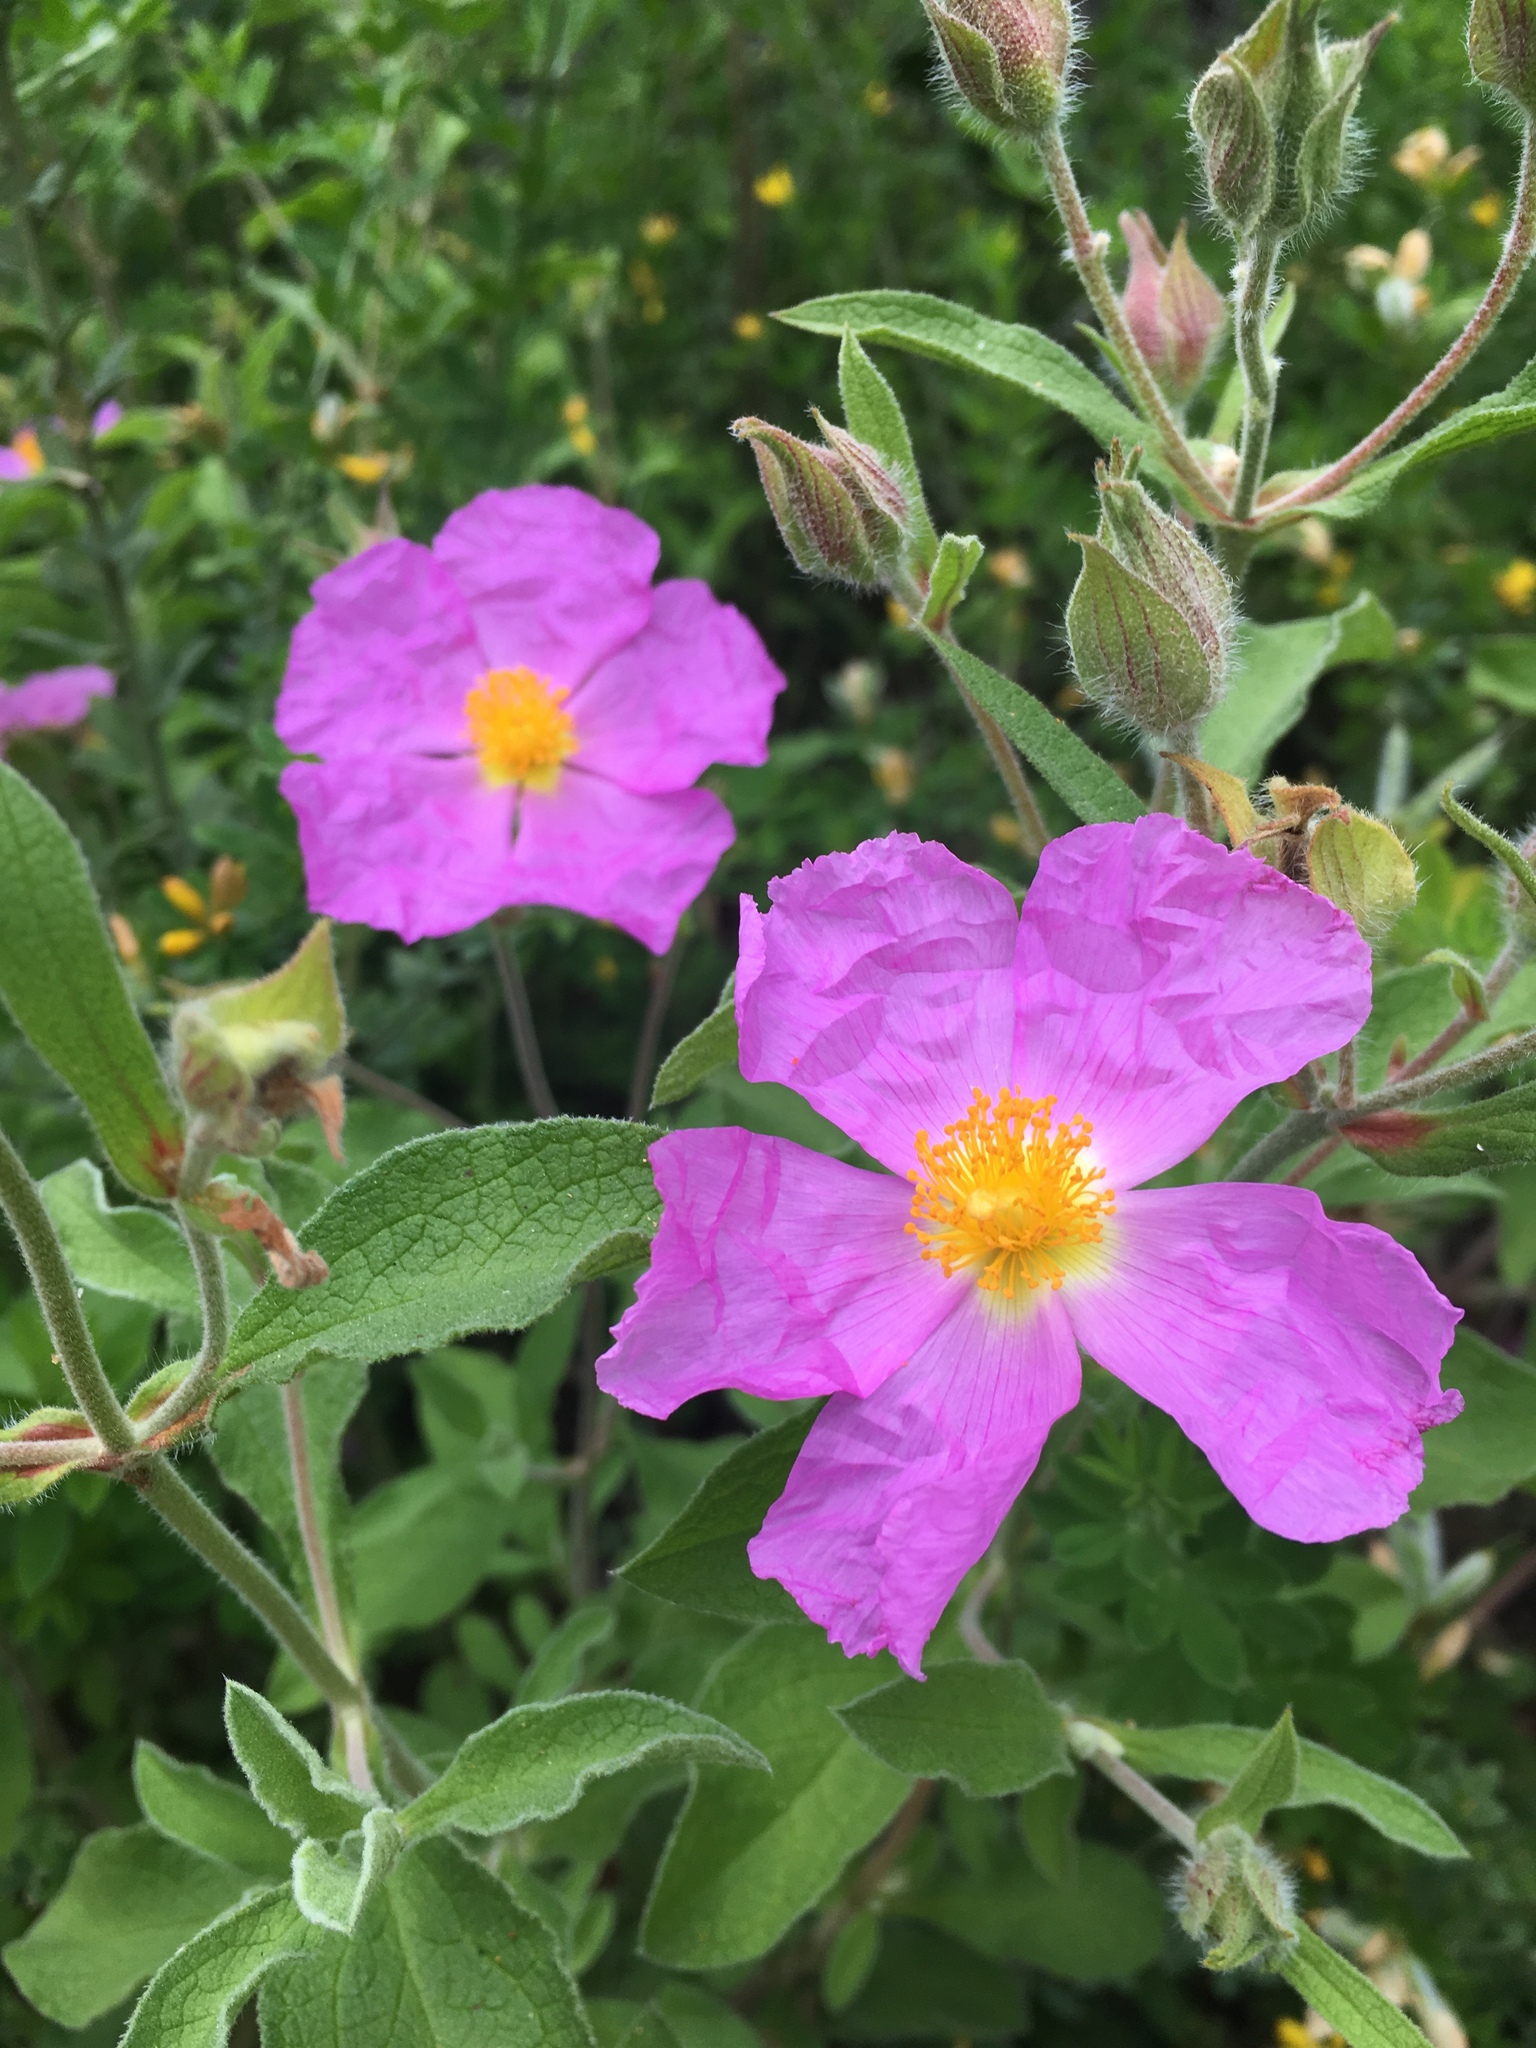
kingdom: Plantae
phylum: Tracheophyta
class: Magnoliopsida
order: Malvales
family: Cistaceae
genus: Cistus
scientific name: Cistus creticus
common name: Cretan rockrose
